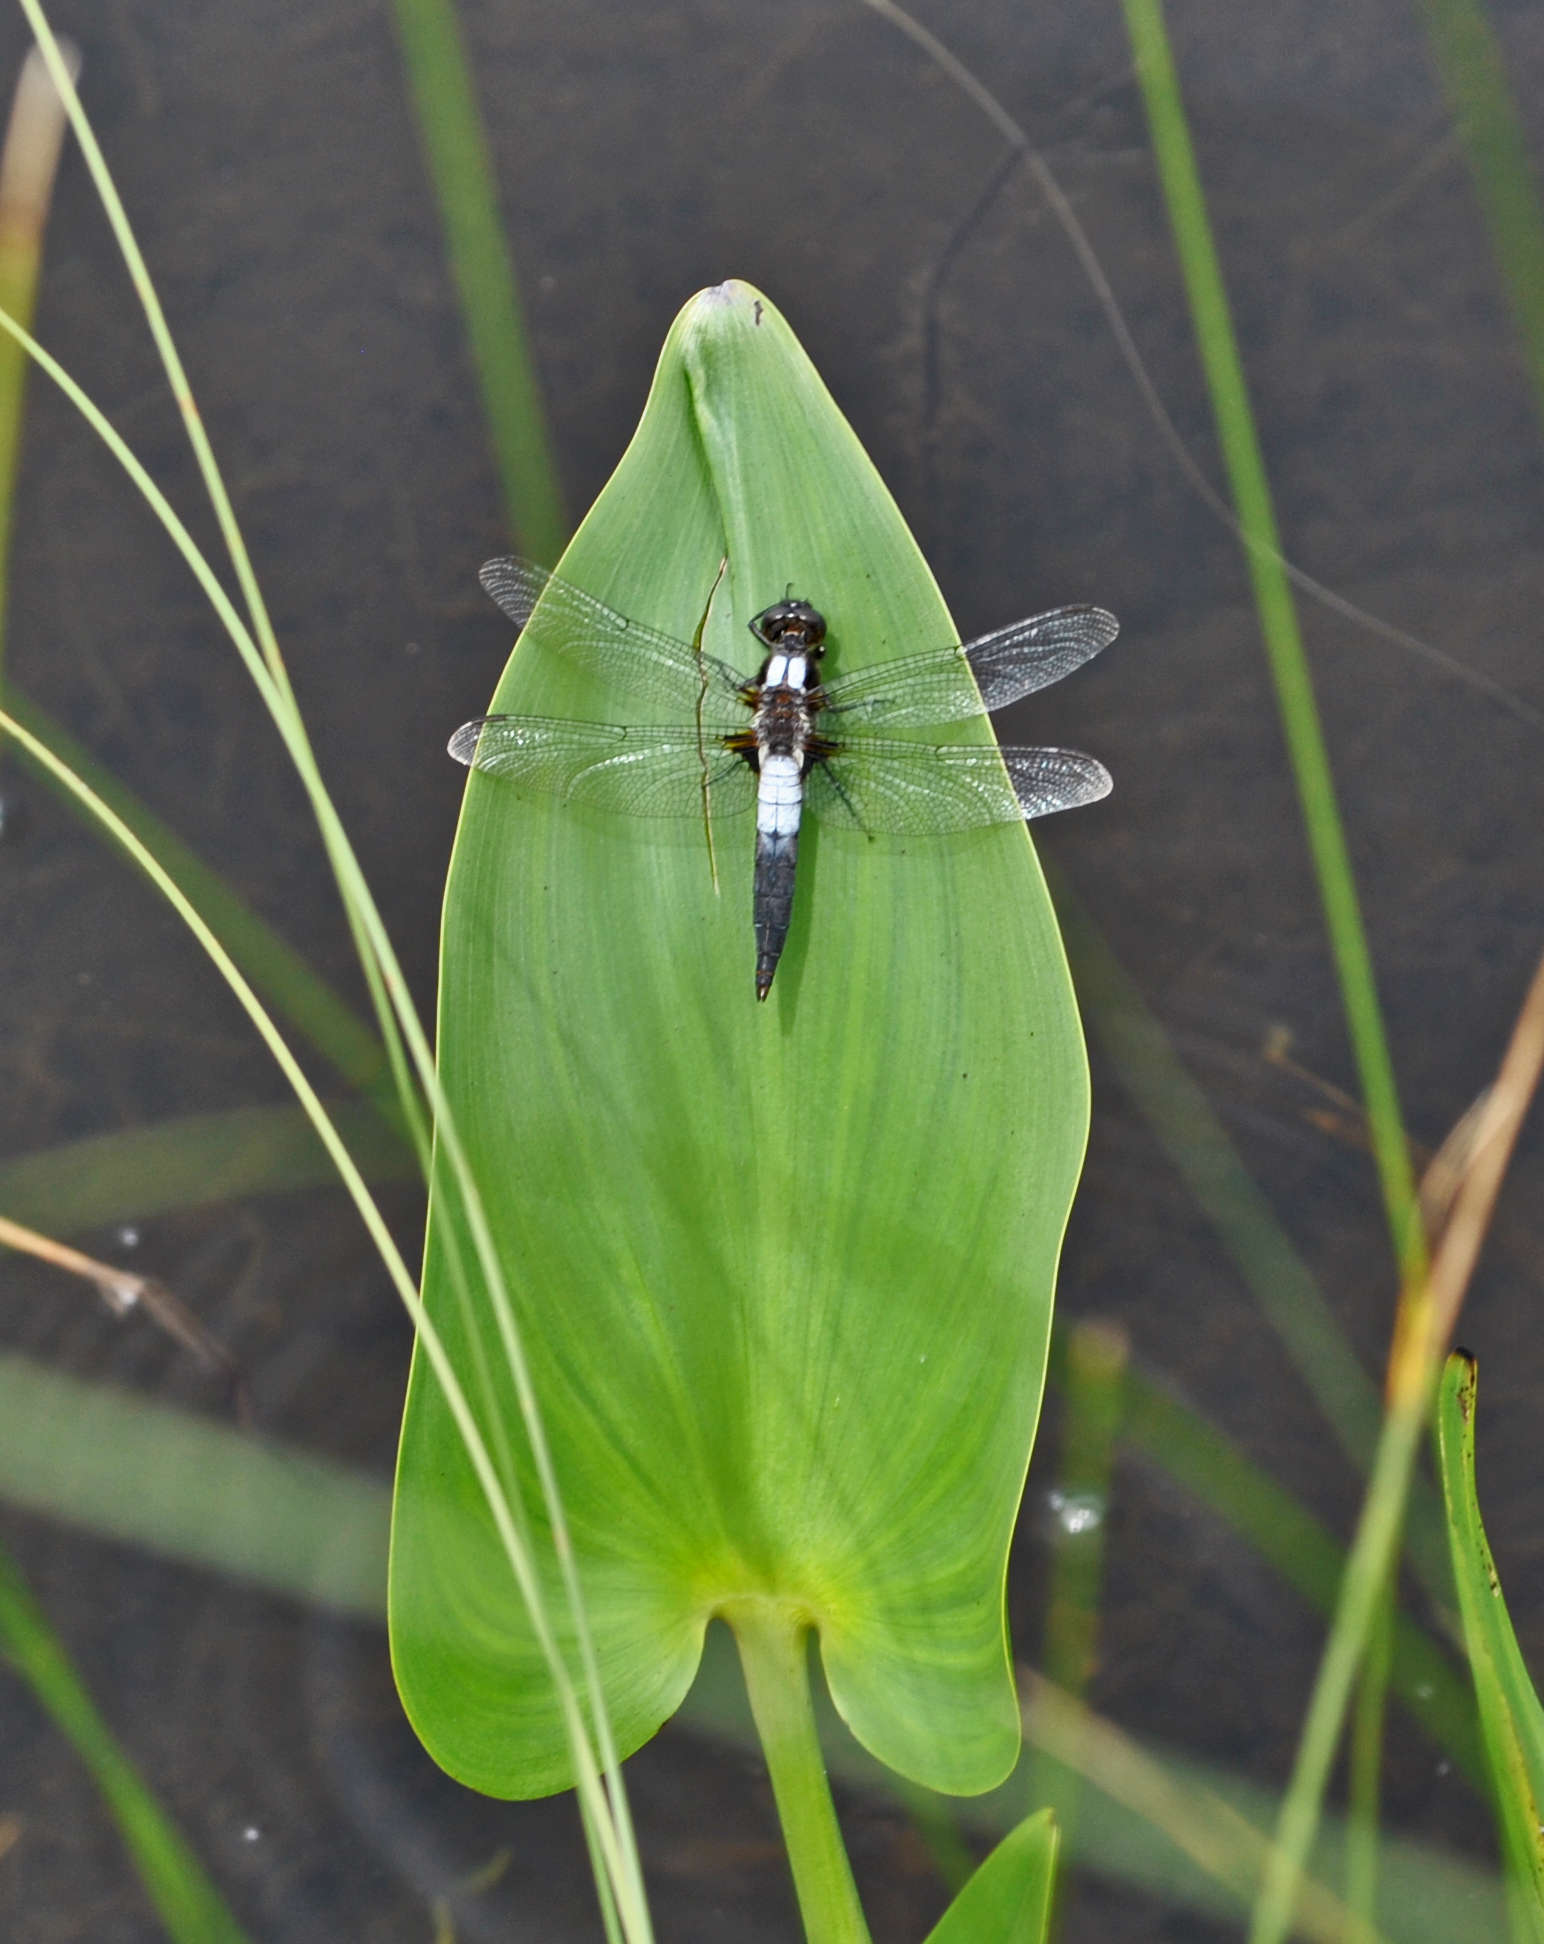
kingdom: Animalia
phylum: Arthropoda
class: Insecta
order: Odonata
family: Libellulidae
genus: Ladona
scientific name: Ladona julia
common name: Chalk-fronted corporal
